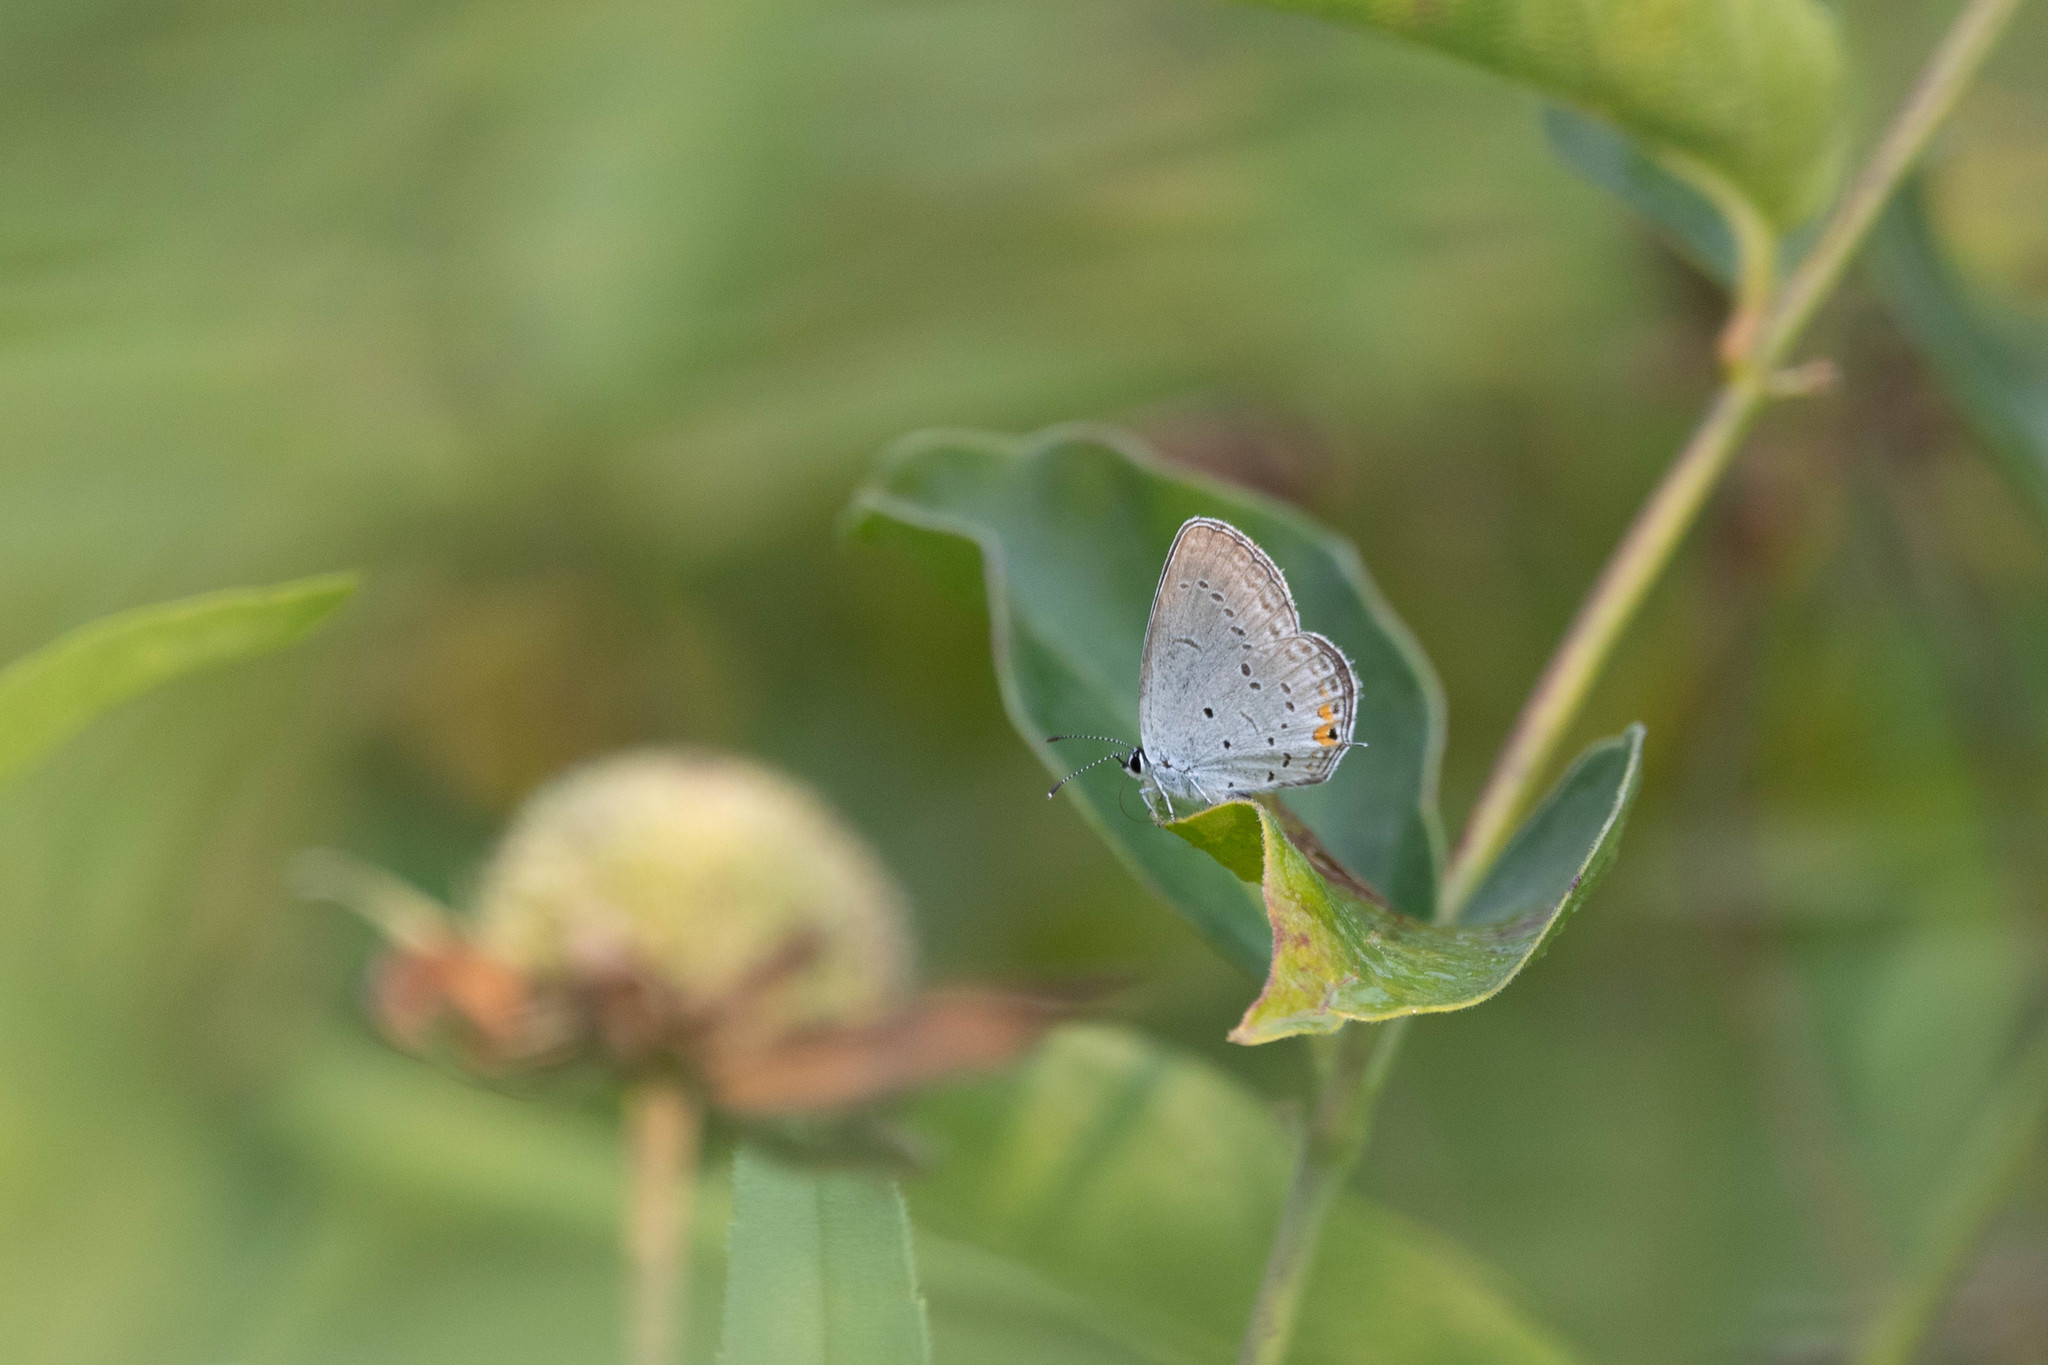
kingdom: Animalia
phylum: Arthropoda
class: Insecta
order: Lepidoptera
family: Lycaenidae
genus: Elkalyce
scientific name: Elkalyce comyntas
